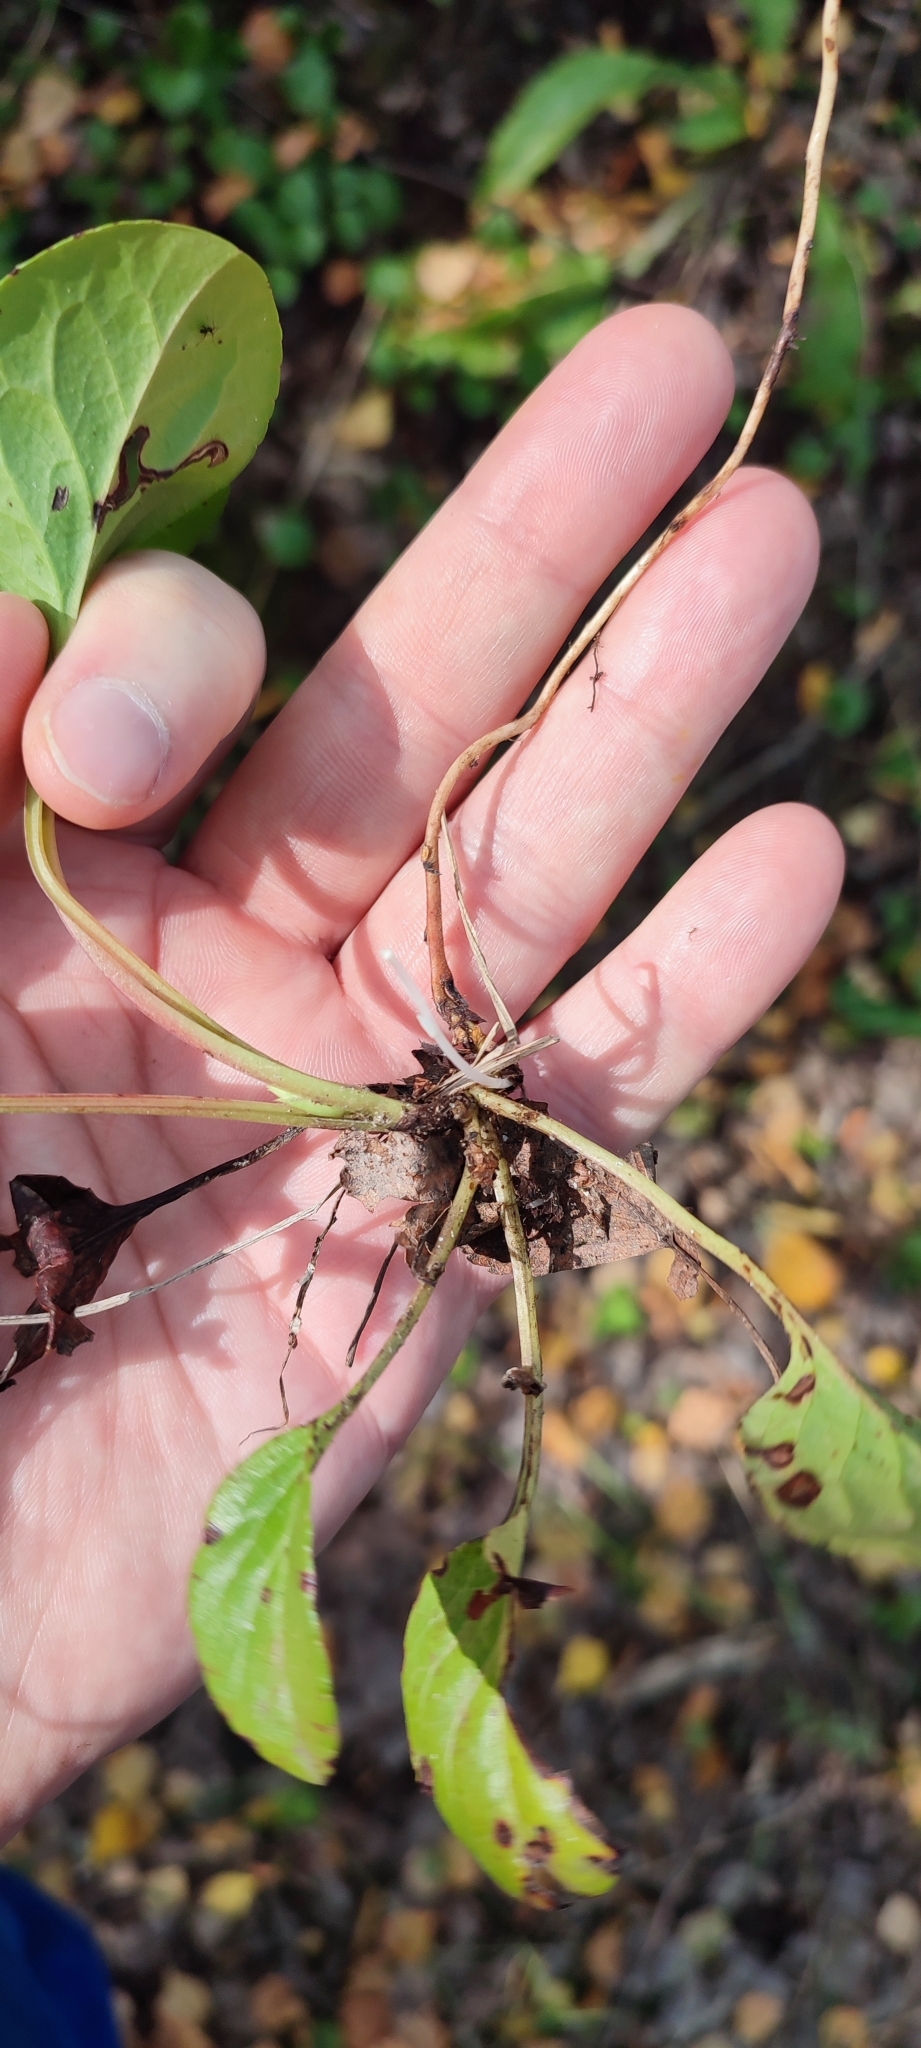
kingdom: Plantae
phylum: Tracheophyta
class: Magnoliopsida
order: Ericales
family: Ericaceae
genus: Pyrola
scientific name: Pyrola rotundifolia
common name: Round-leaved wintergreen
